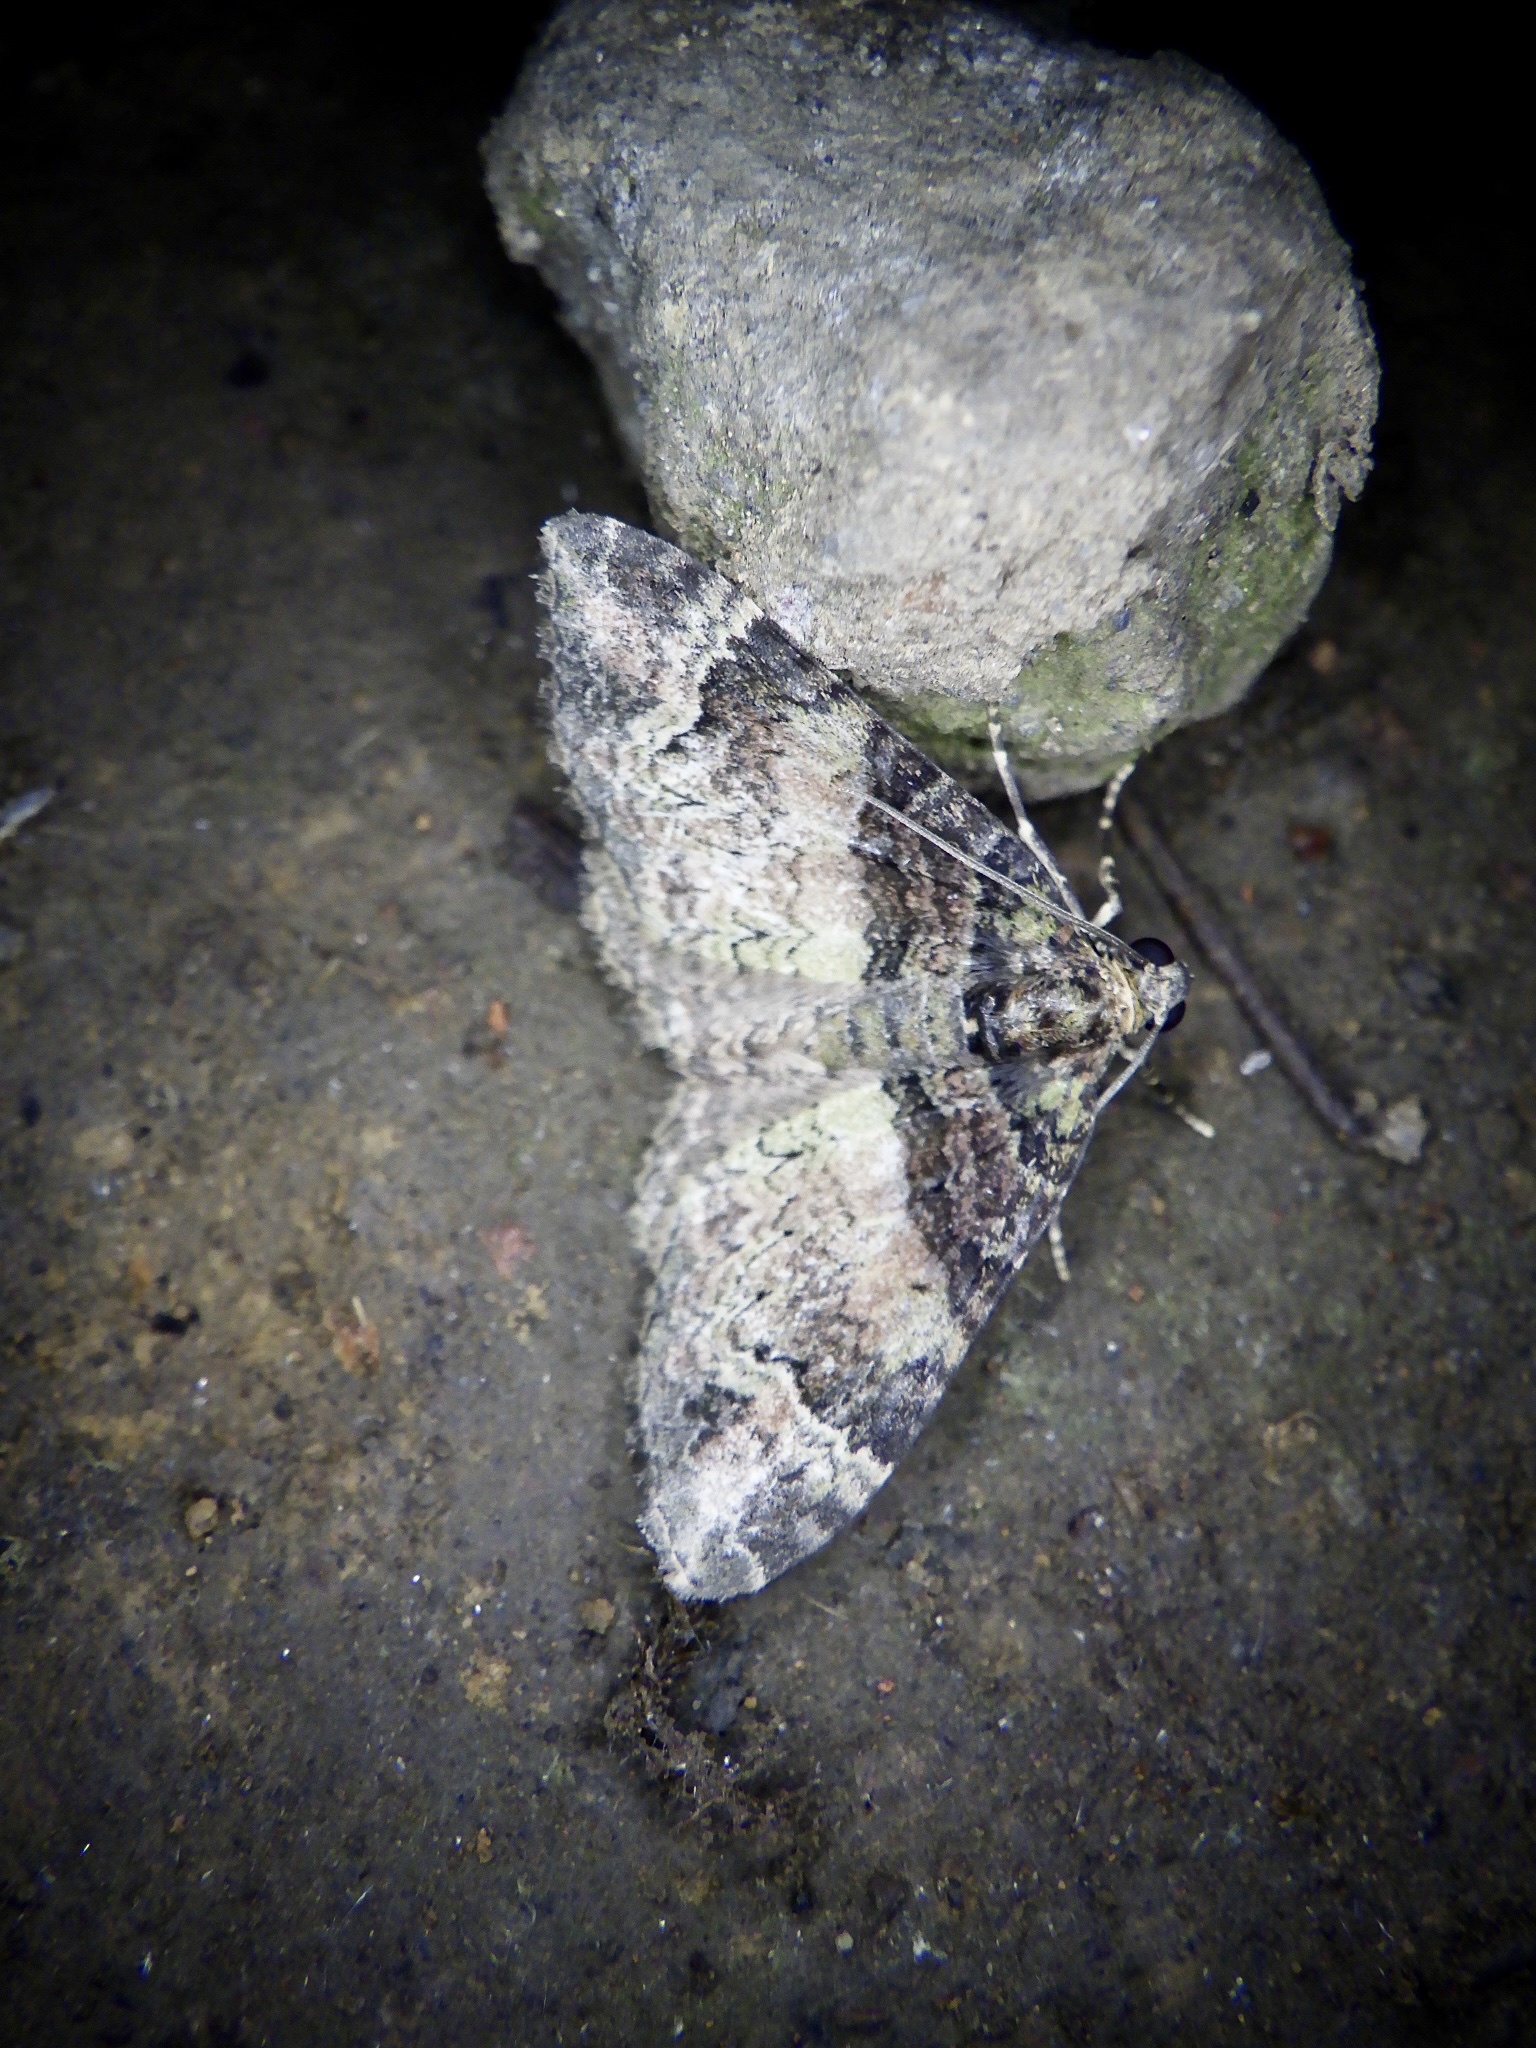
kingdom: Animalia
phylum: Arthropoda
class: Insecta
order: Lepidoptera
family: Geometridae
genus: Microcalcarifera
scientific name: Microcalcarifera obscura
